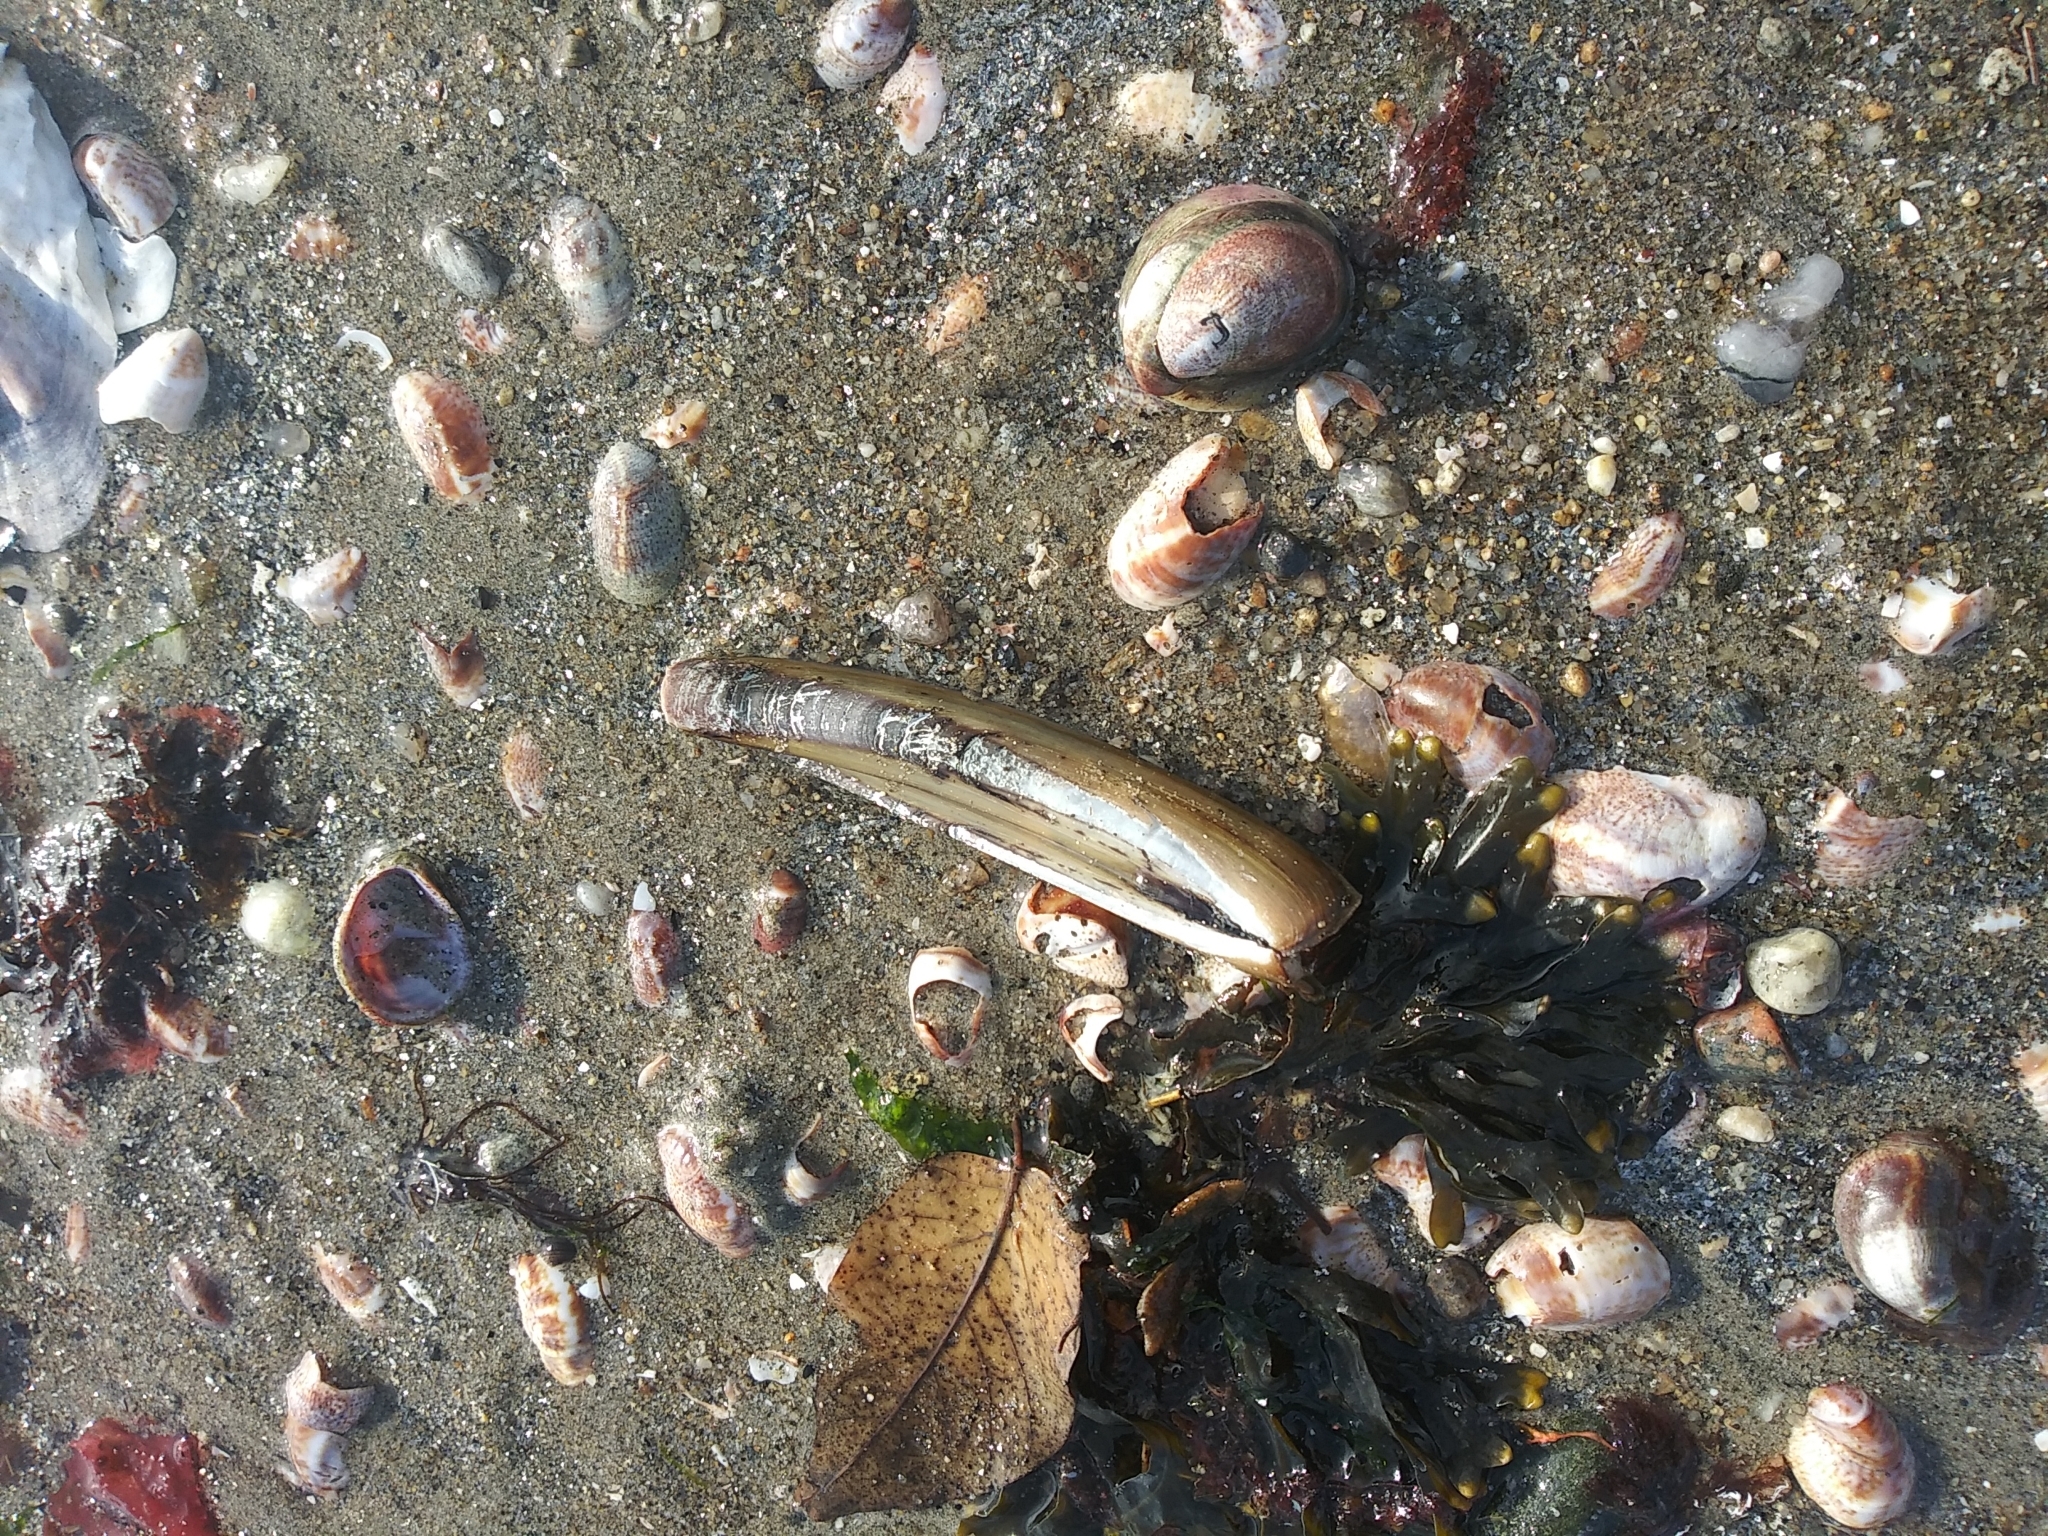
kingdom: Animalia
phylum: Mollusca
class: Bivalvia
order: Adapedonta
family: Pharidae
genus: Ensis
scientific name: Ensis leei
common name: American jack knife clam
